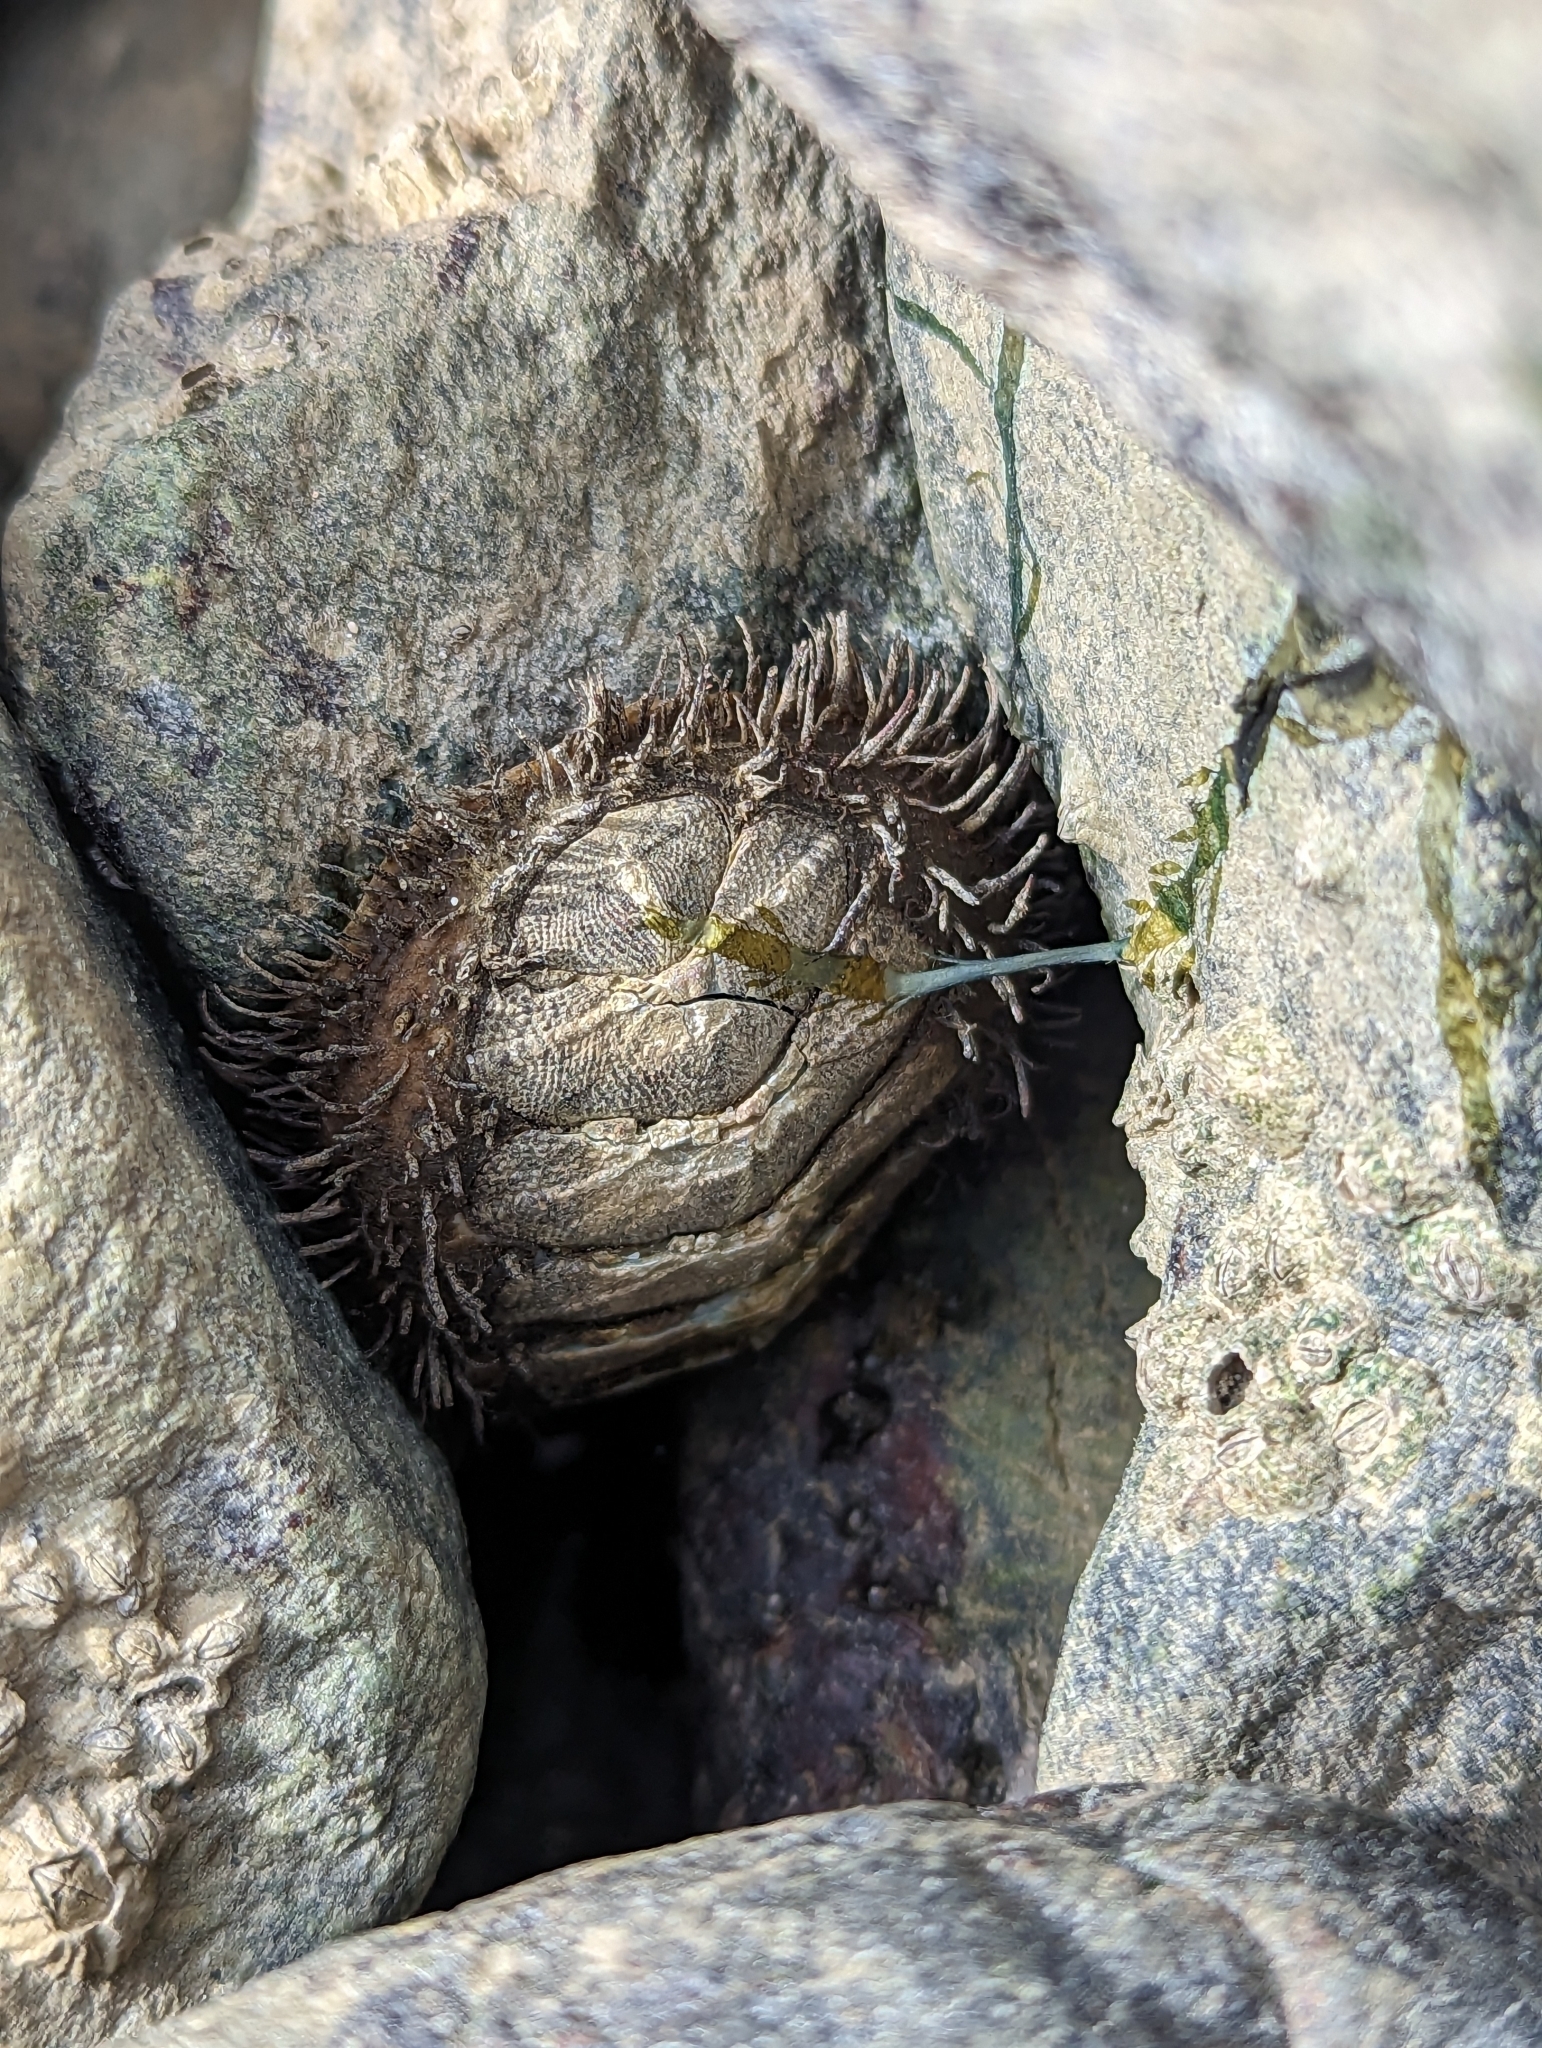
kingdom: Animalia
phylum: Mollusca
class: Polyplacophora
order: Chitonida
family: Mopaliidae
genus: Mopalia
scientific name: Mopalia muscosa
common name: Mossy chiton
